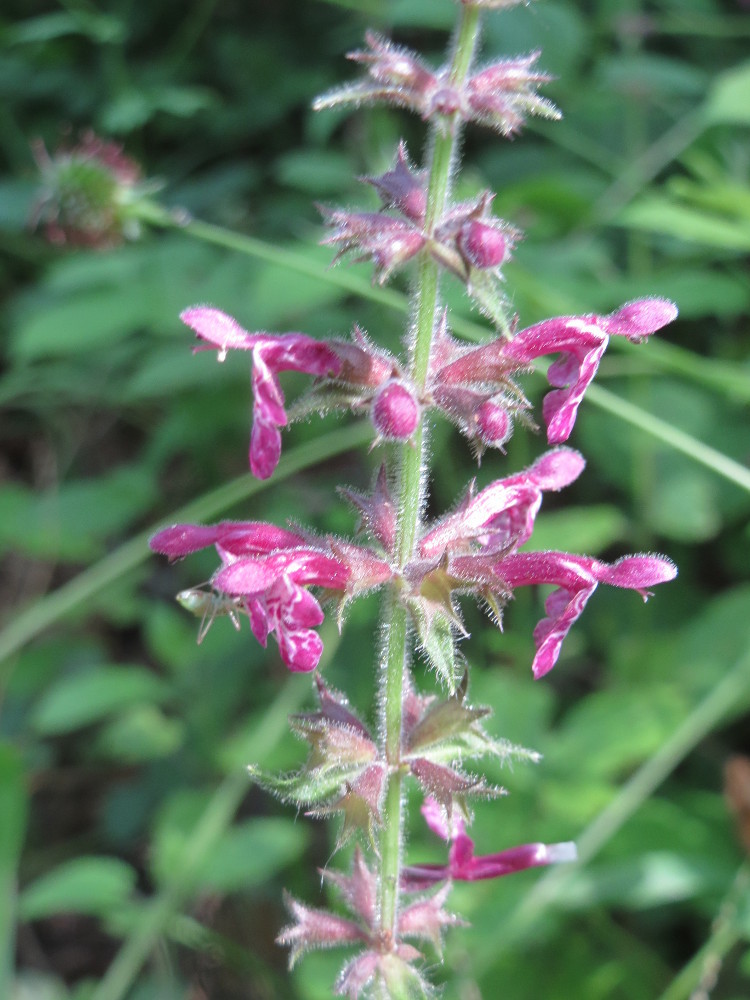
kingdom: Plantae
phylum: Tracheophyta
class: Magnoliopsida
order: Lamiales
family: Lamiaceae
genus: Stachys
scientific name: Stachys sylvatica
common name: Hedge woundwort
